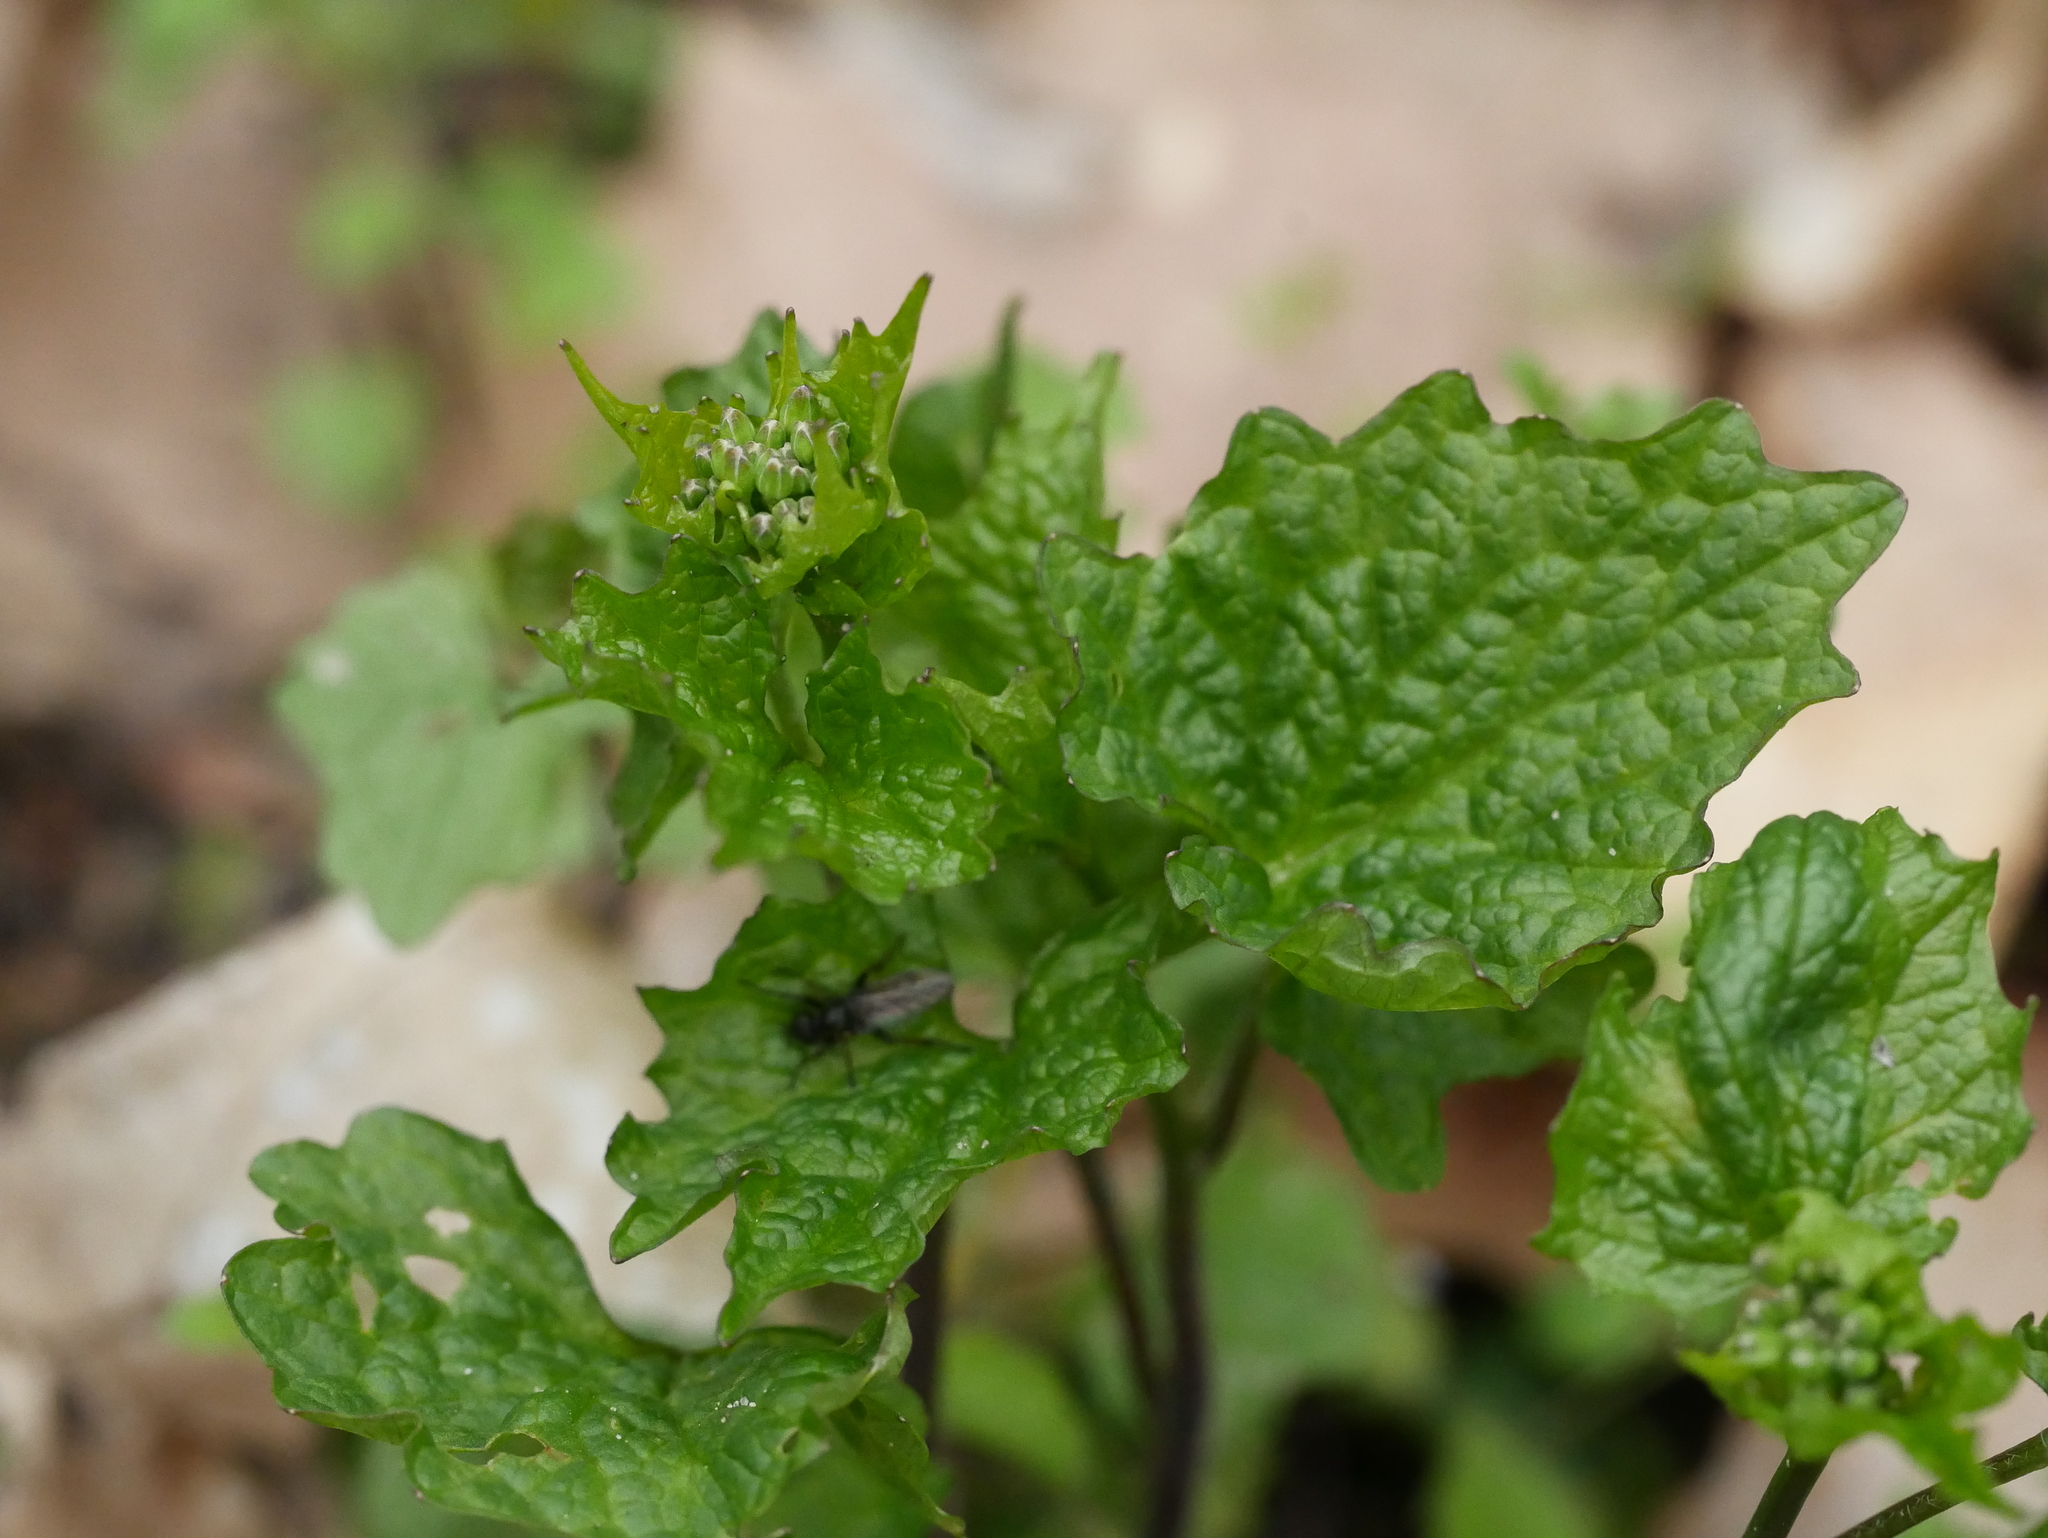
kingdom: Plantae
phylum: Tracheophyta
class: Magnoliopsida
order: Brassicales
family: Brassicaceae
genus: Alliaria
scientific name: Alliaria petiolata
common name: Garlic mustard
